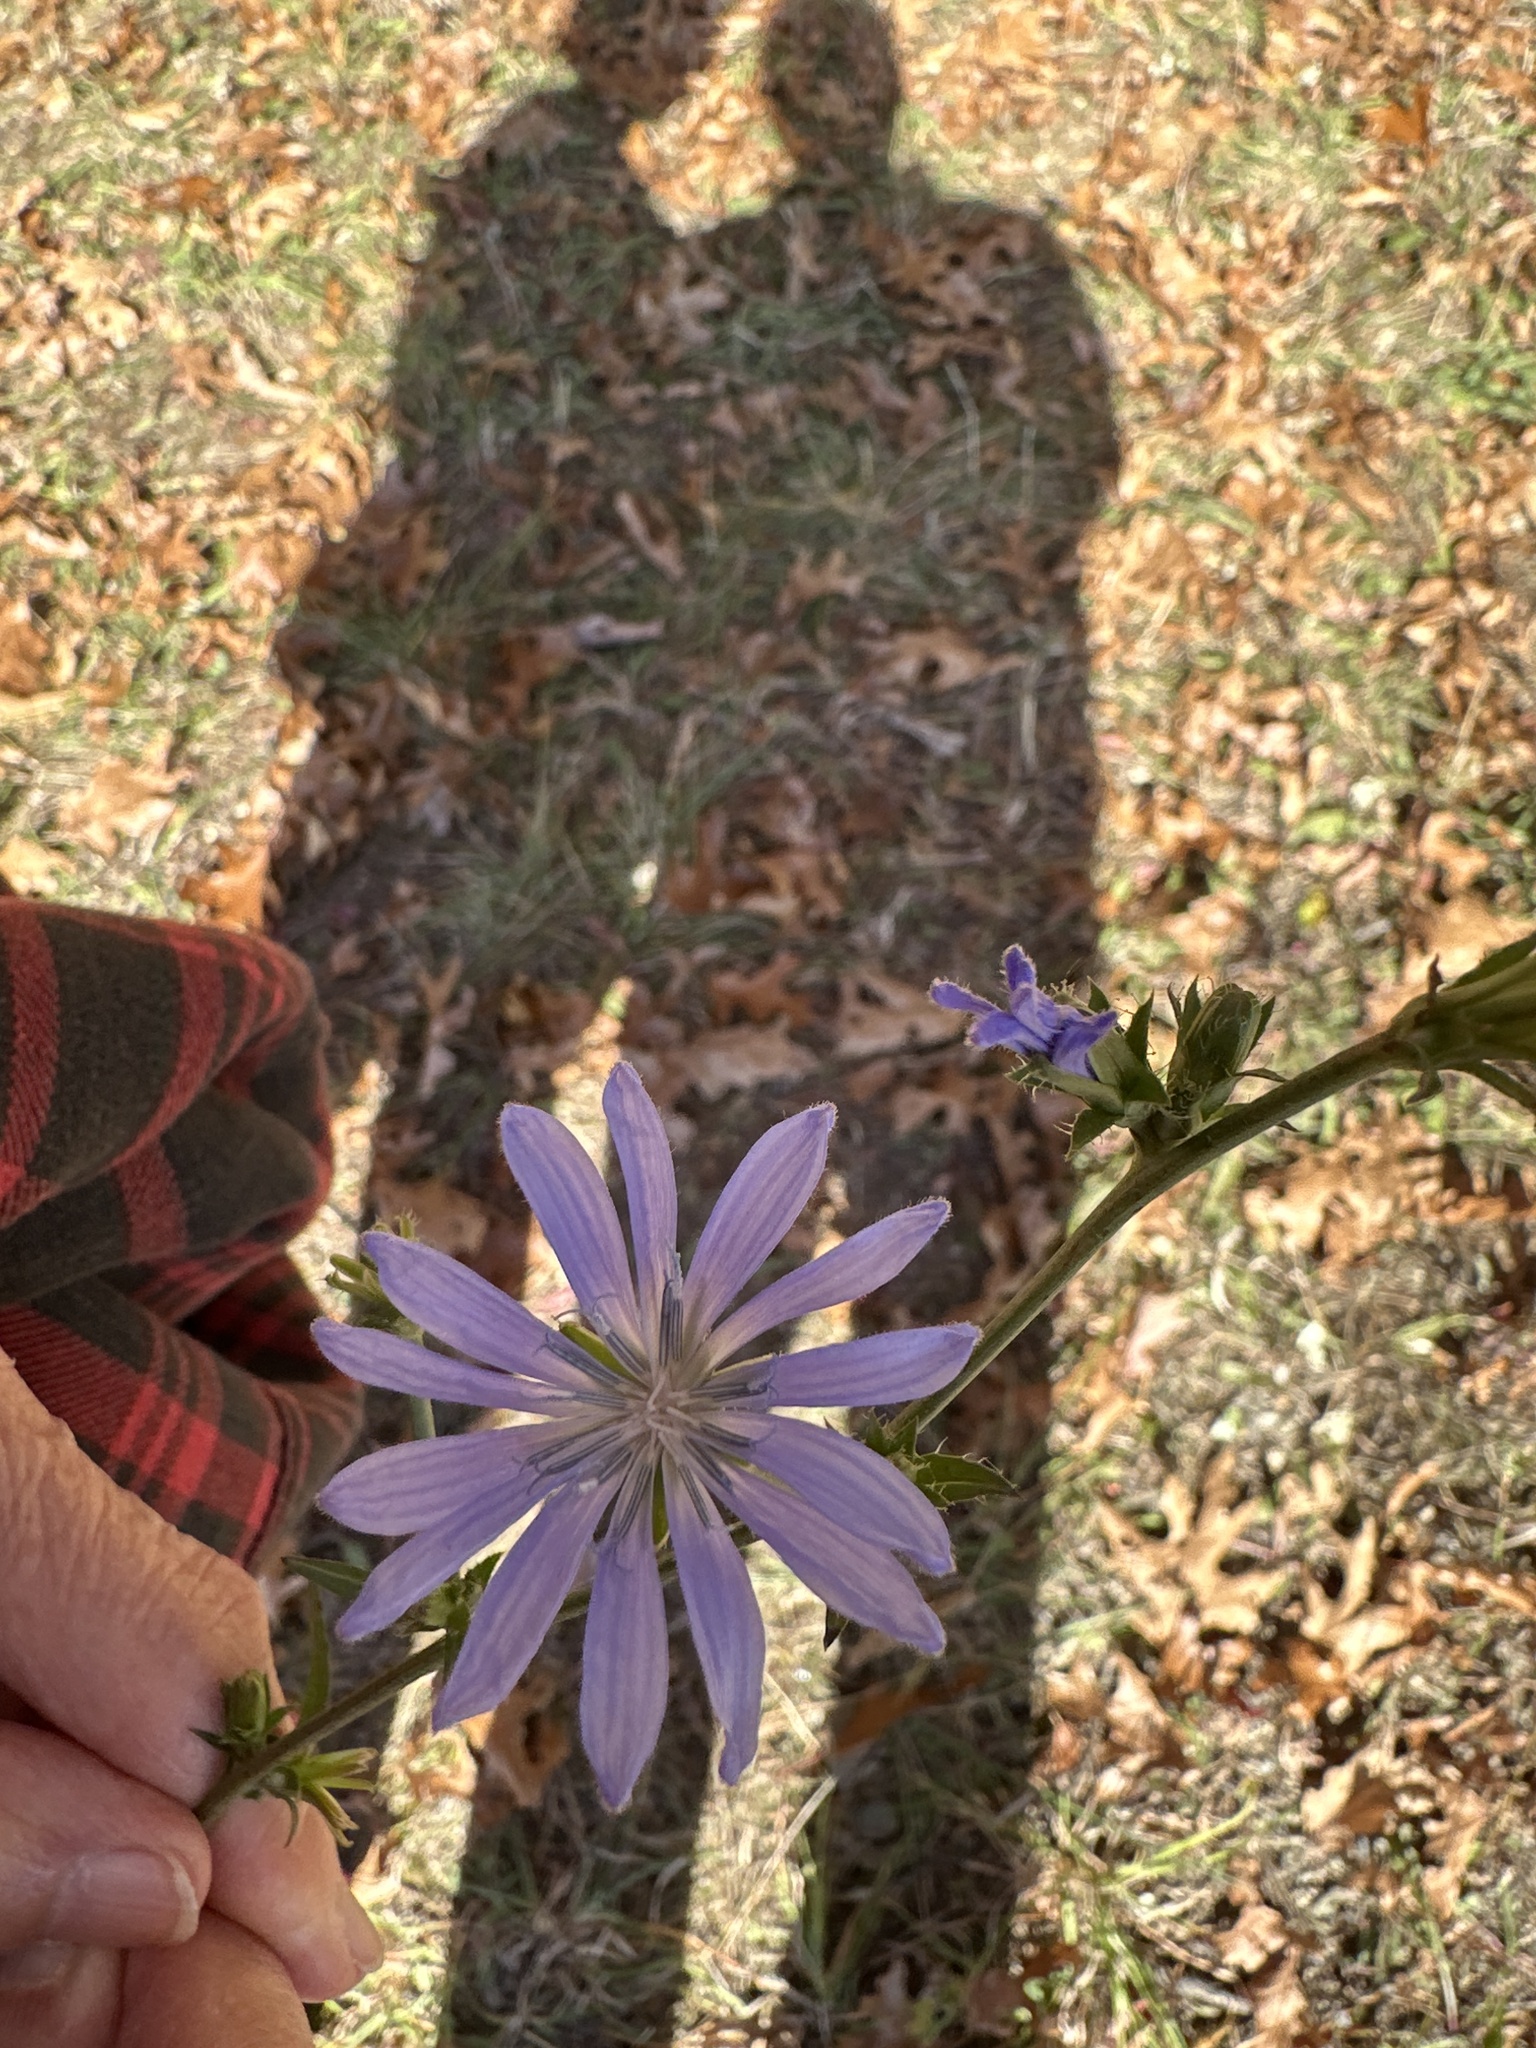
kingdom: Plantae
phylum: Tracheophyta
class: Magnoliopsida
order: Asterales
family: Asteraceae
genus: Cichorium
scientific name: Cichorium intybus
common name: Chicory
